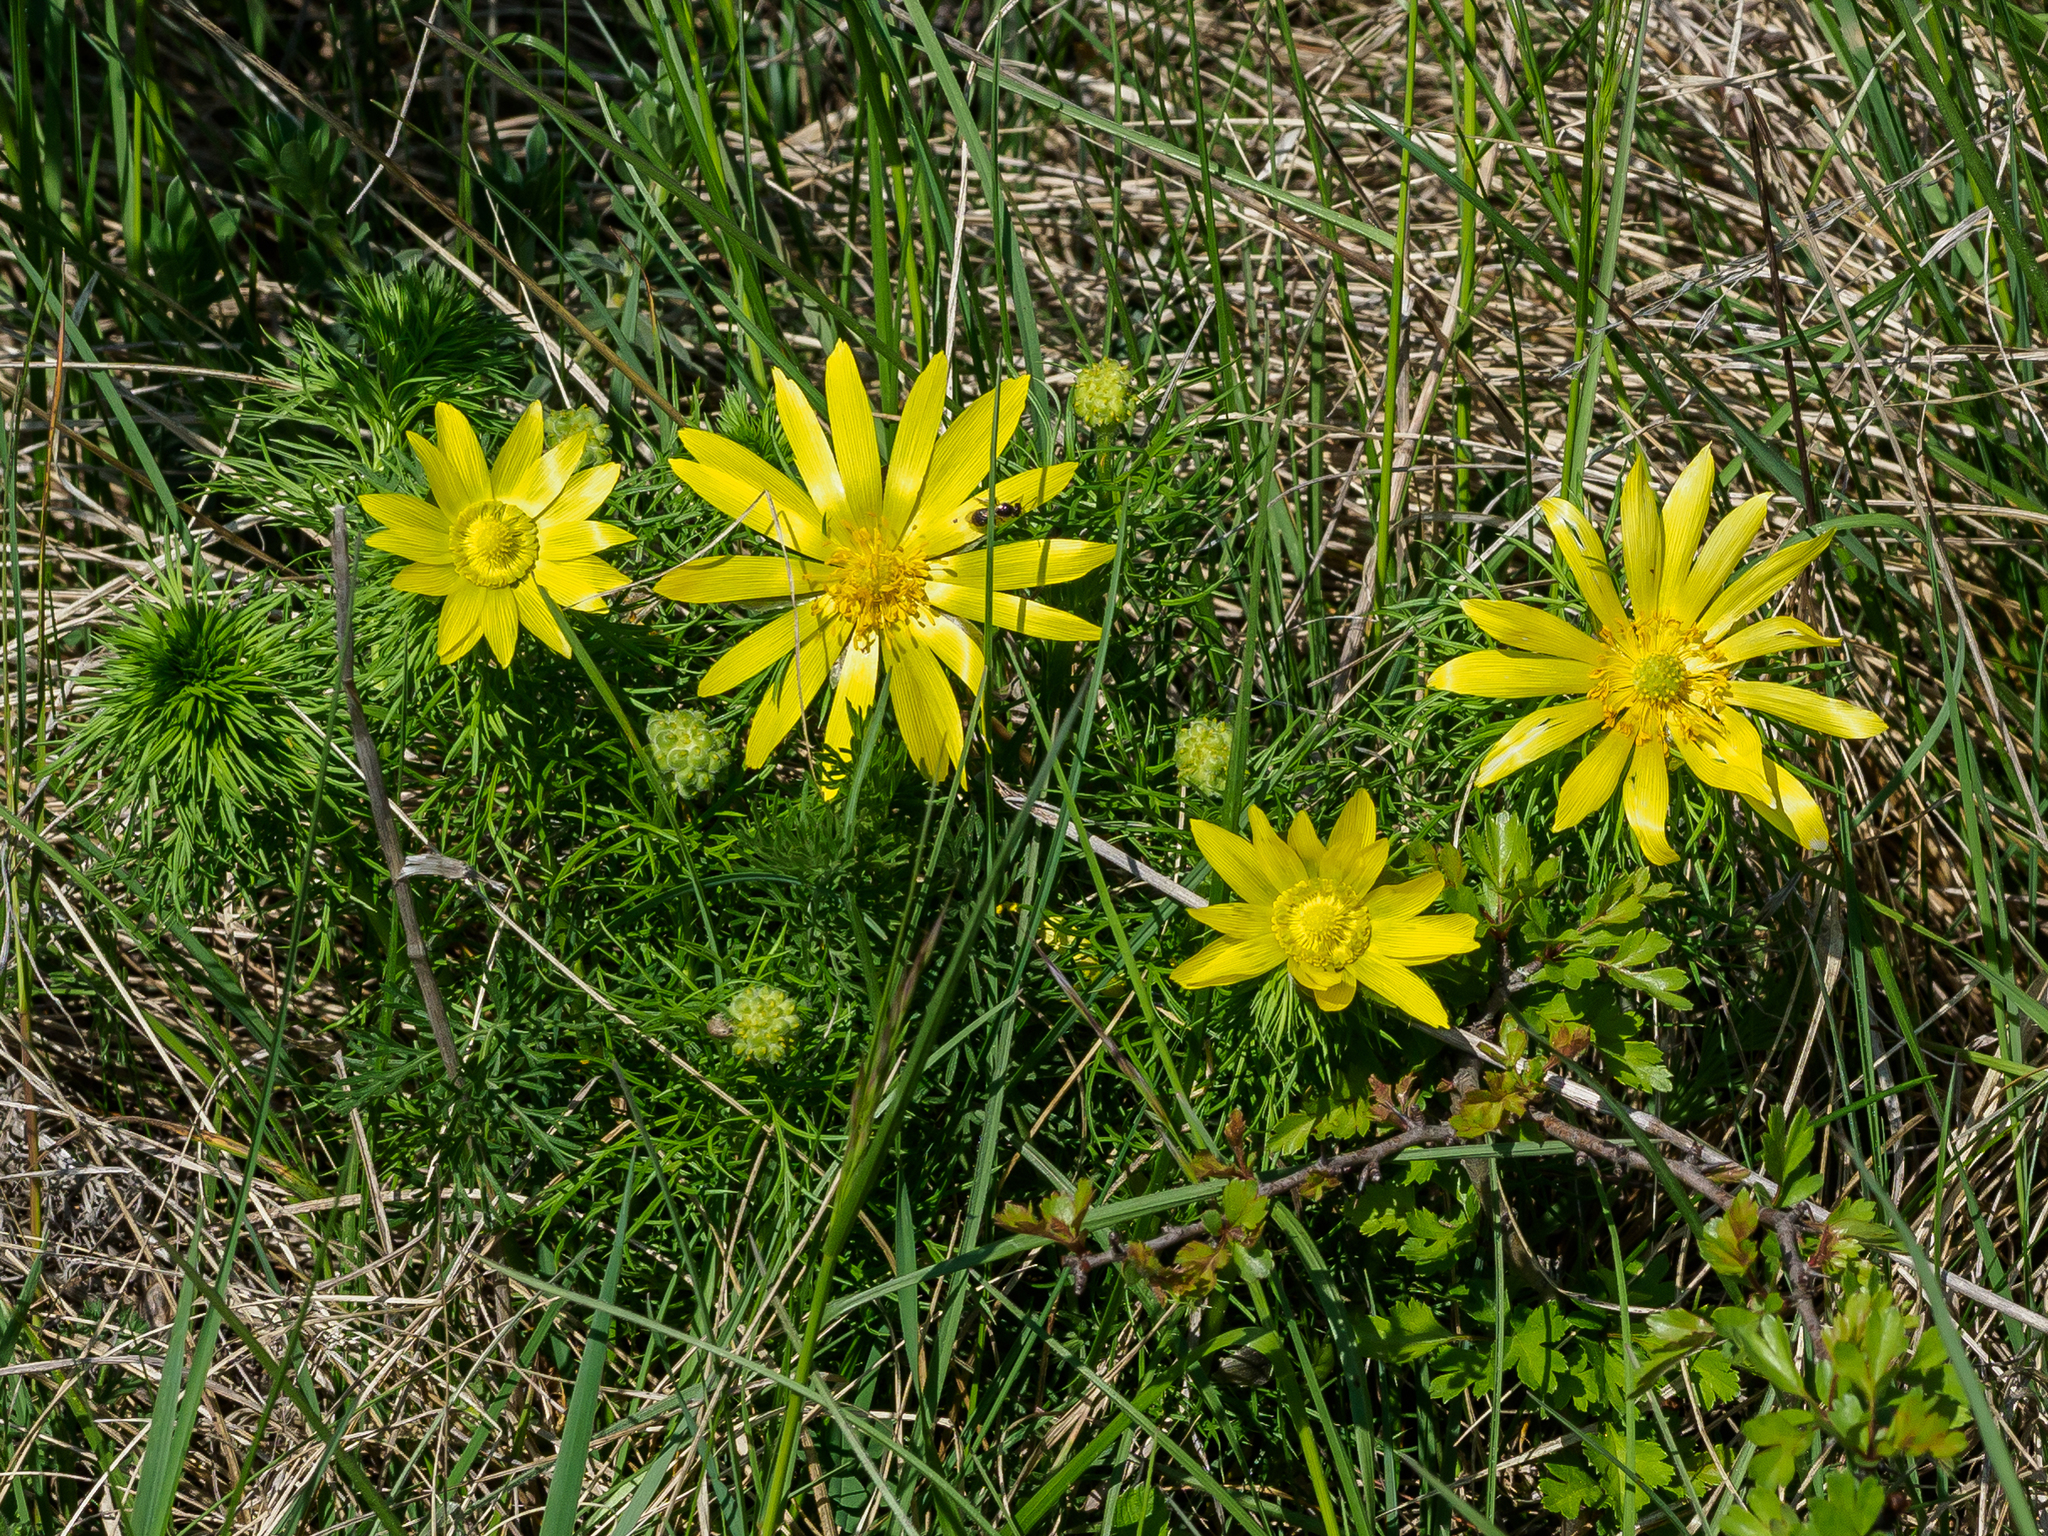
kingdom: Plantae
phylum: Tracheophyta
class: Magnoliopsida
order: Ranunculales
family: Ranunculaceae
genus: Adonis
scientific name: Adonis vernalis
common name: Yellow pheasants-eye
